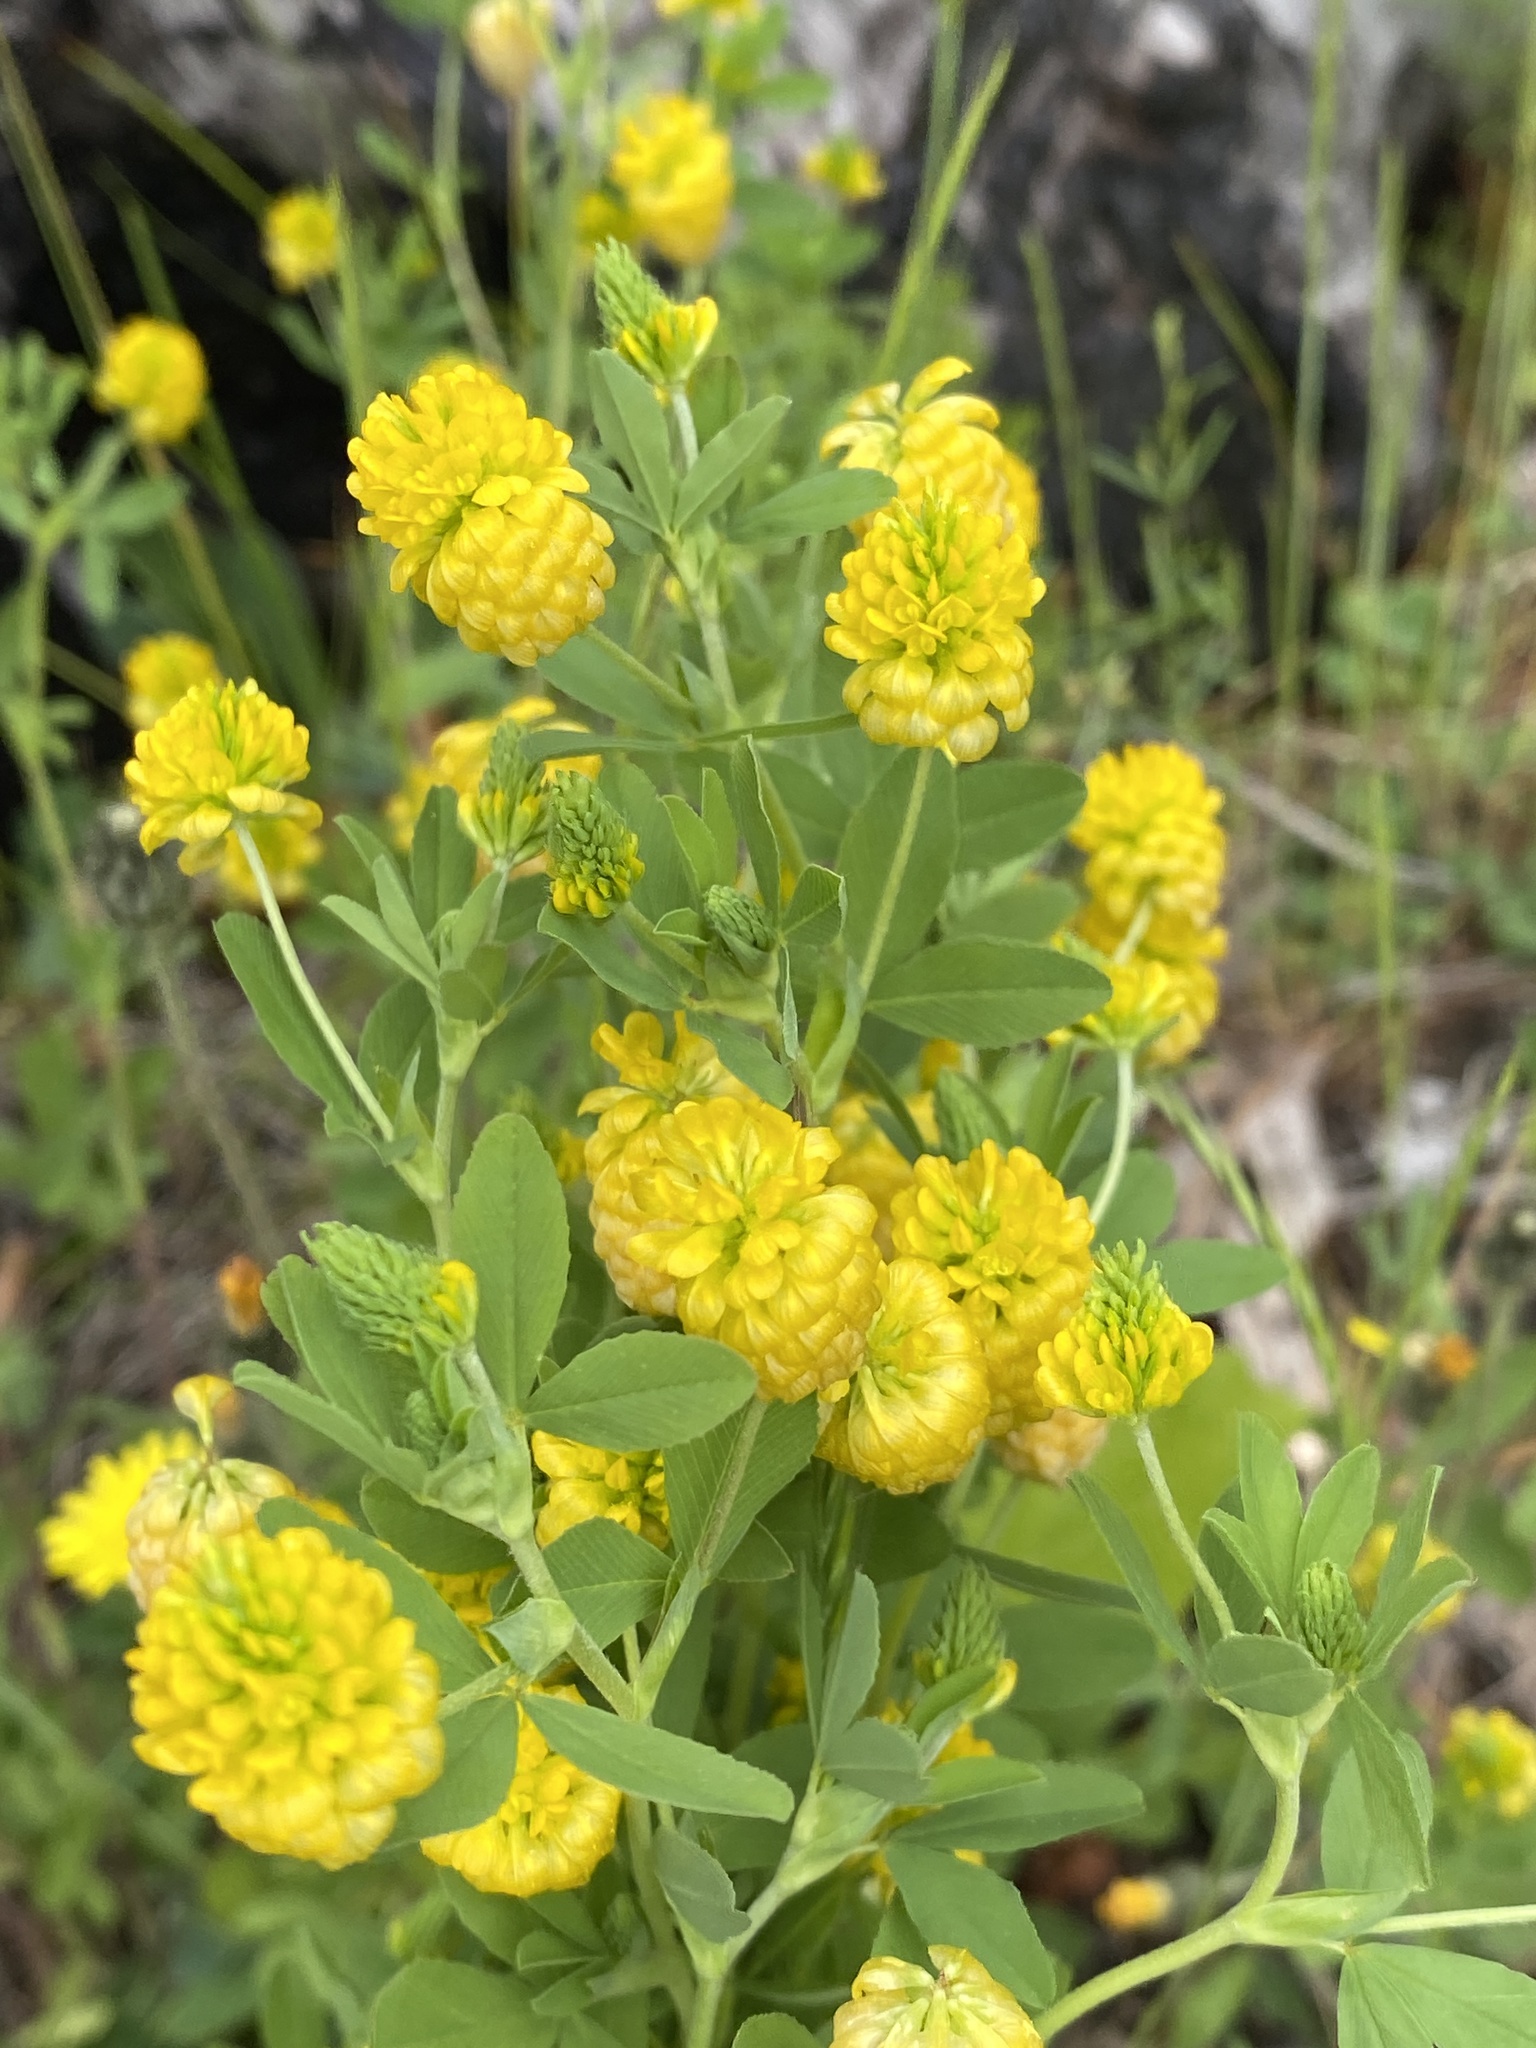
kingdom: Plantae
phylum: Tracheophyta
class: Magnoliopsida
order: Fabales
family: Fabaceae
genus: Trifolium
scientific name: Trifolium aureum
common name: Golden clover
